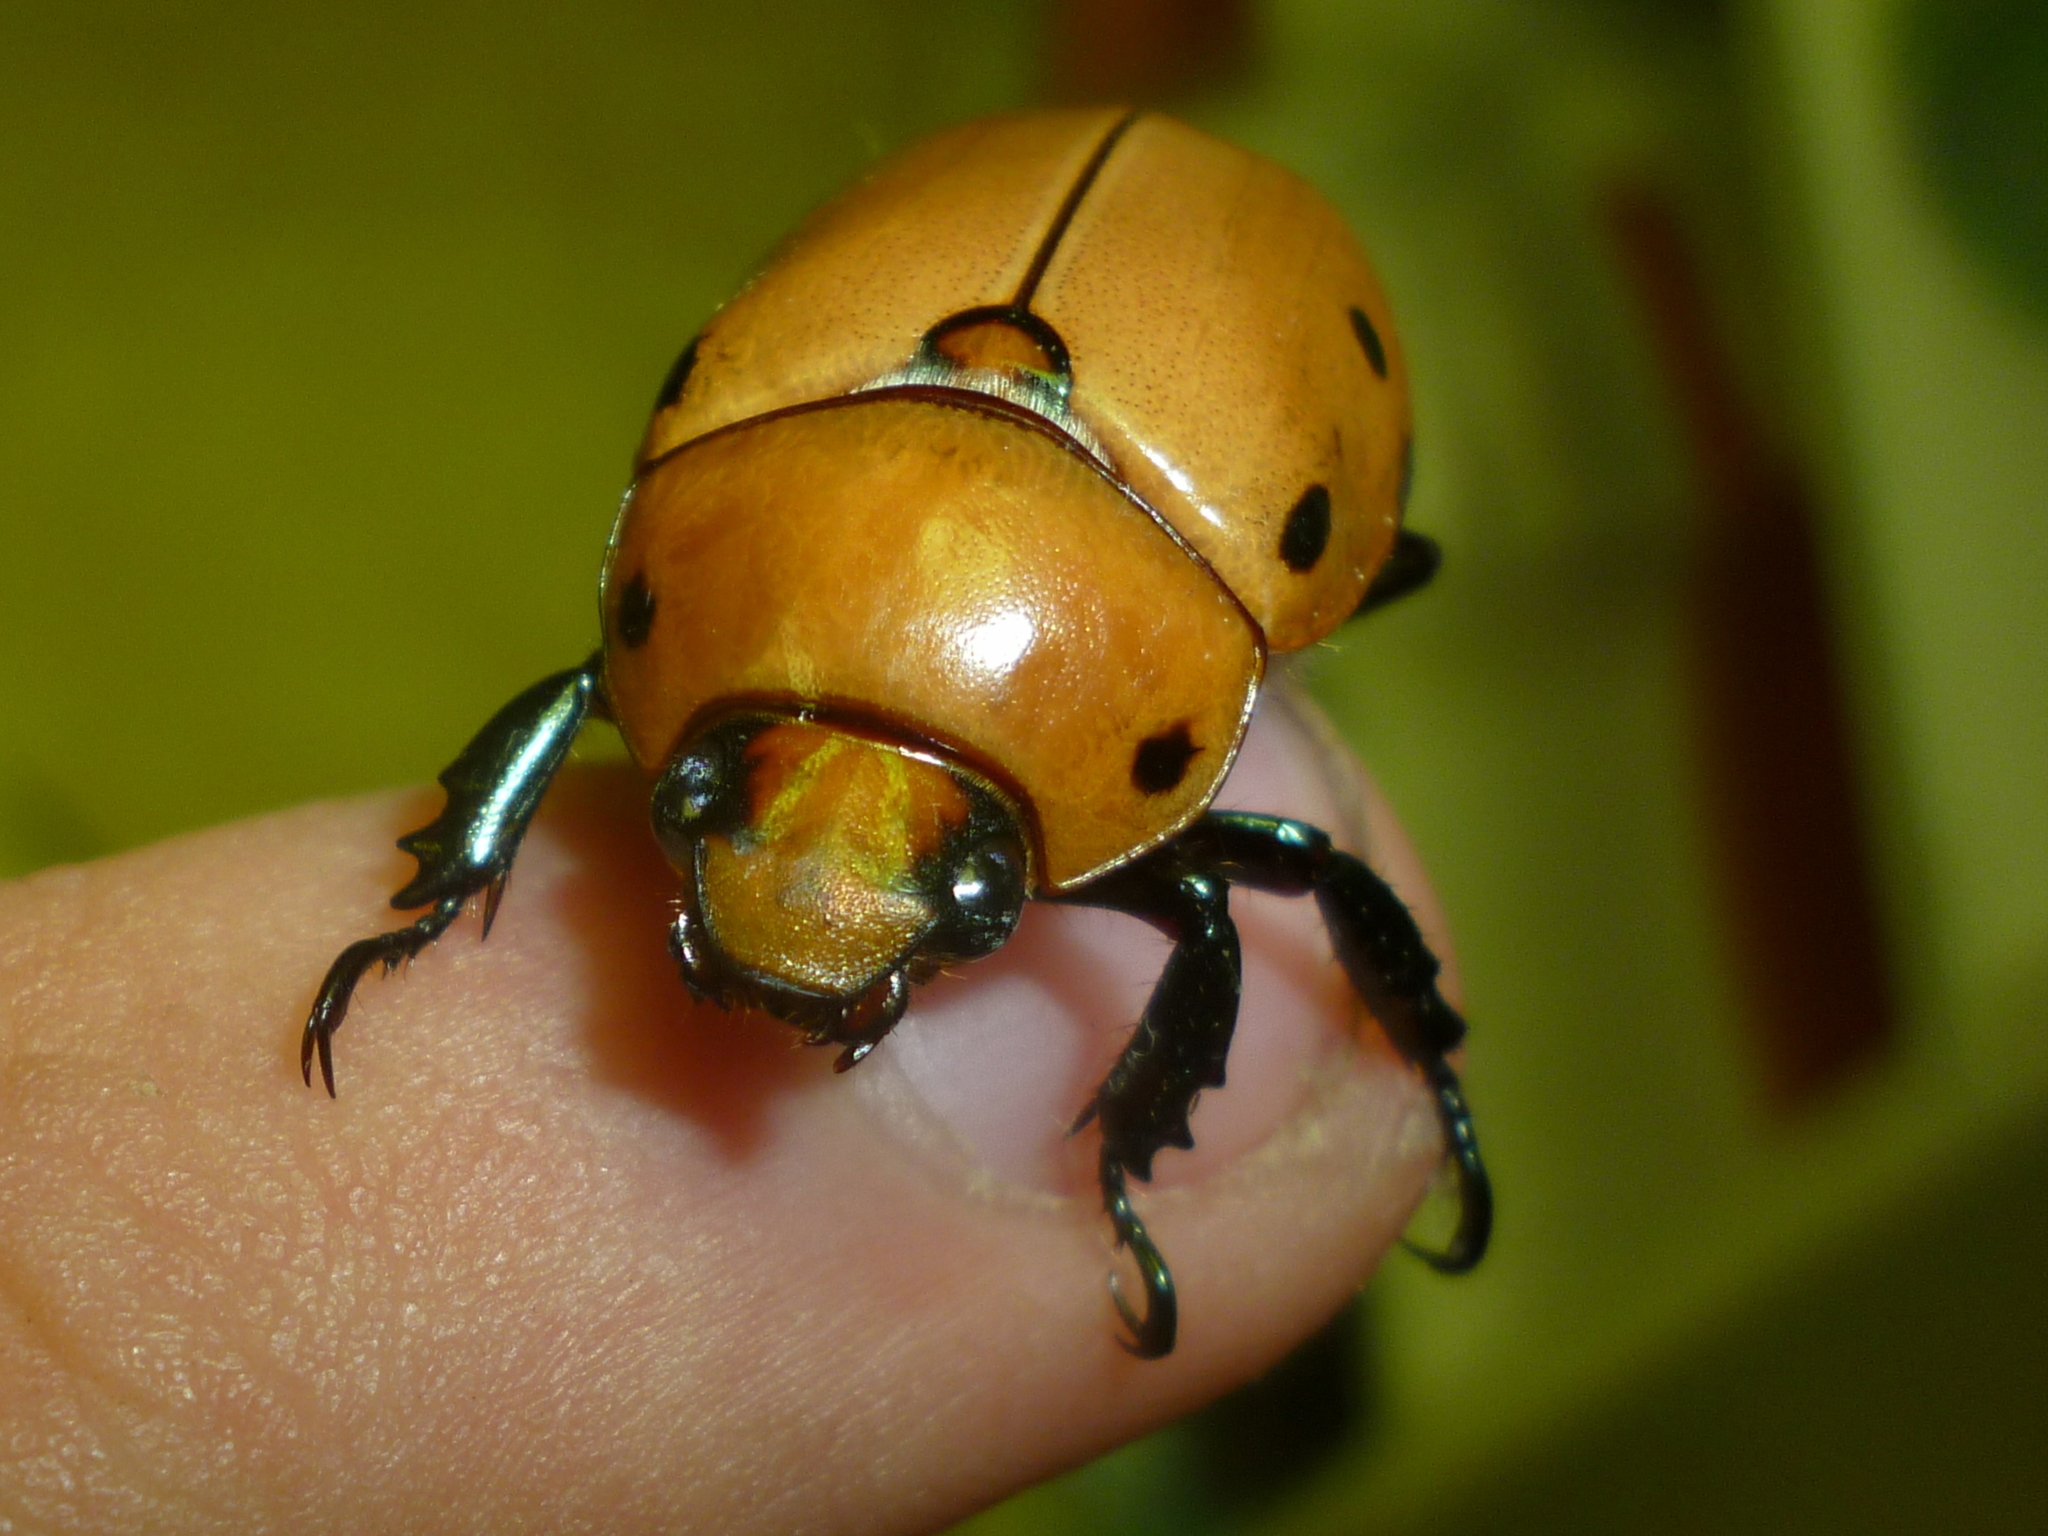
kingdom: Animalia
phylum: Arthropoda
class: Insecta
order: Coleoptera
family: Scarabaeidae
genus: Pelidnota
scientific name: Pelidnota punctata
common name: Grapevine beetle
